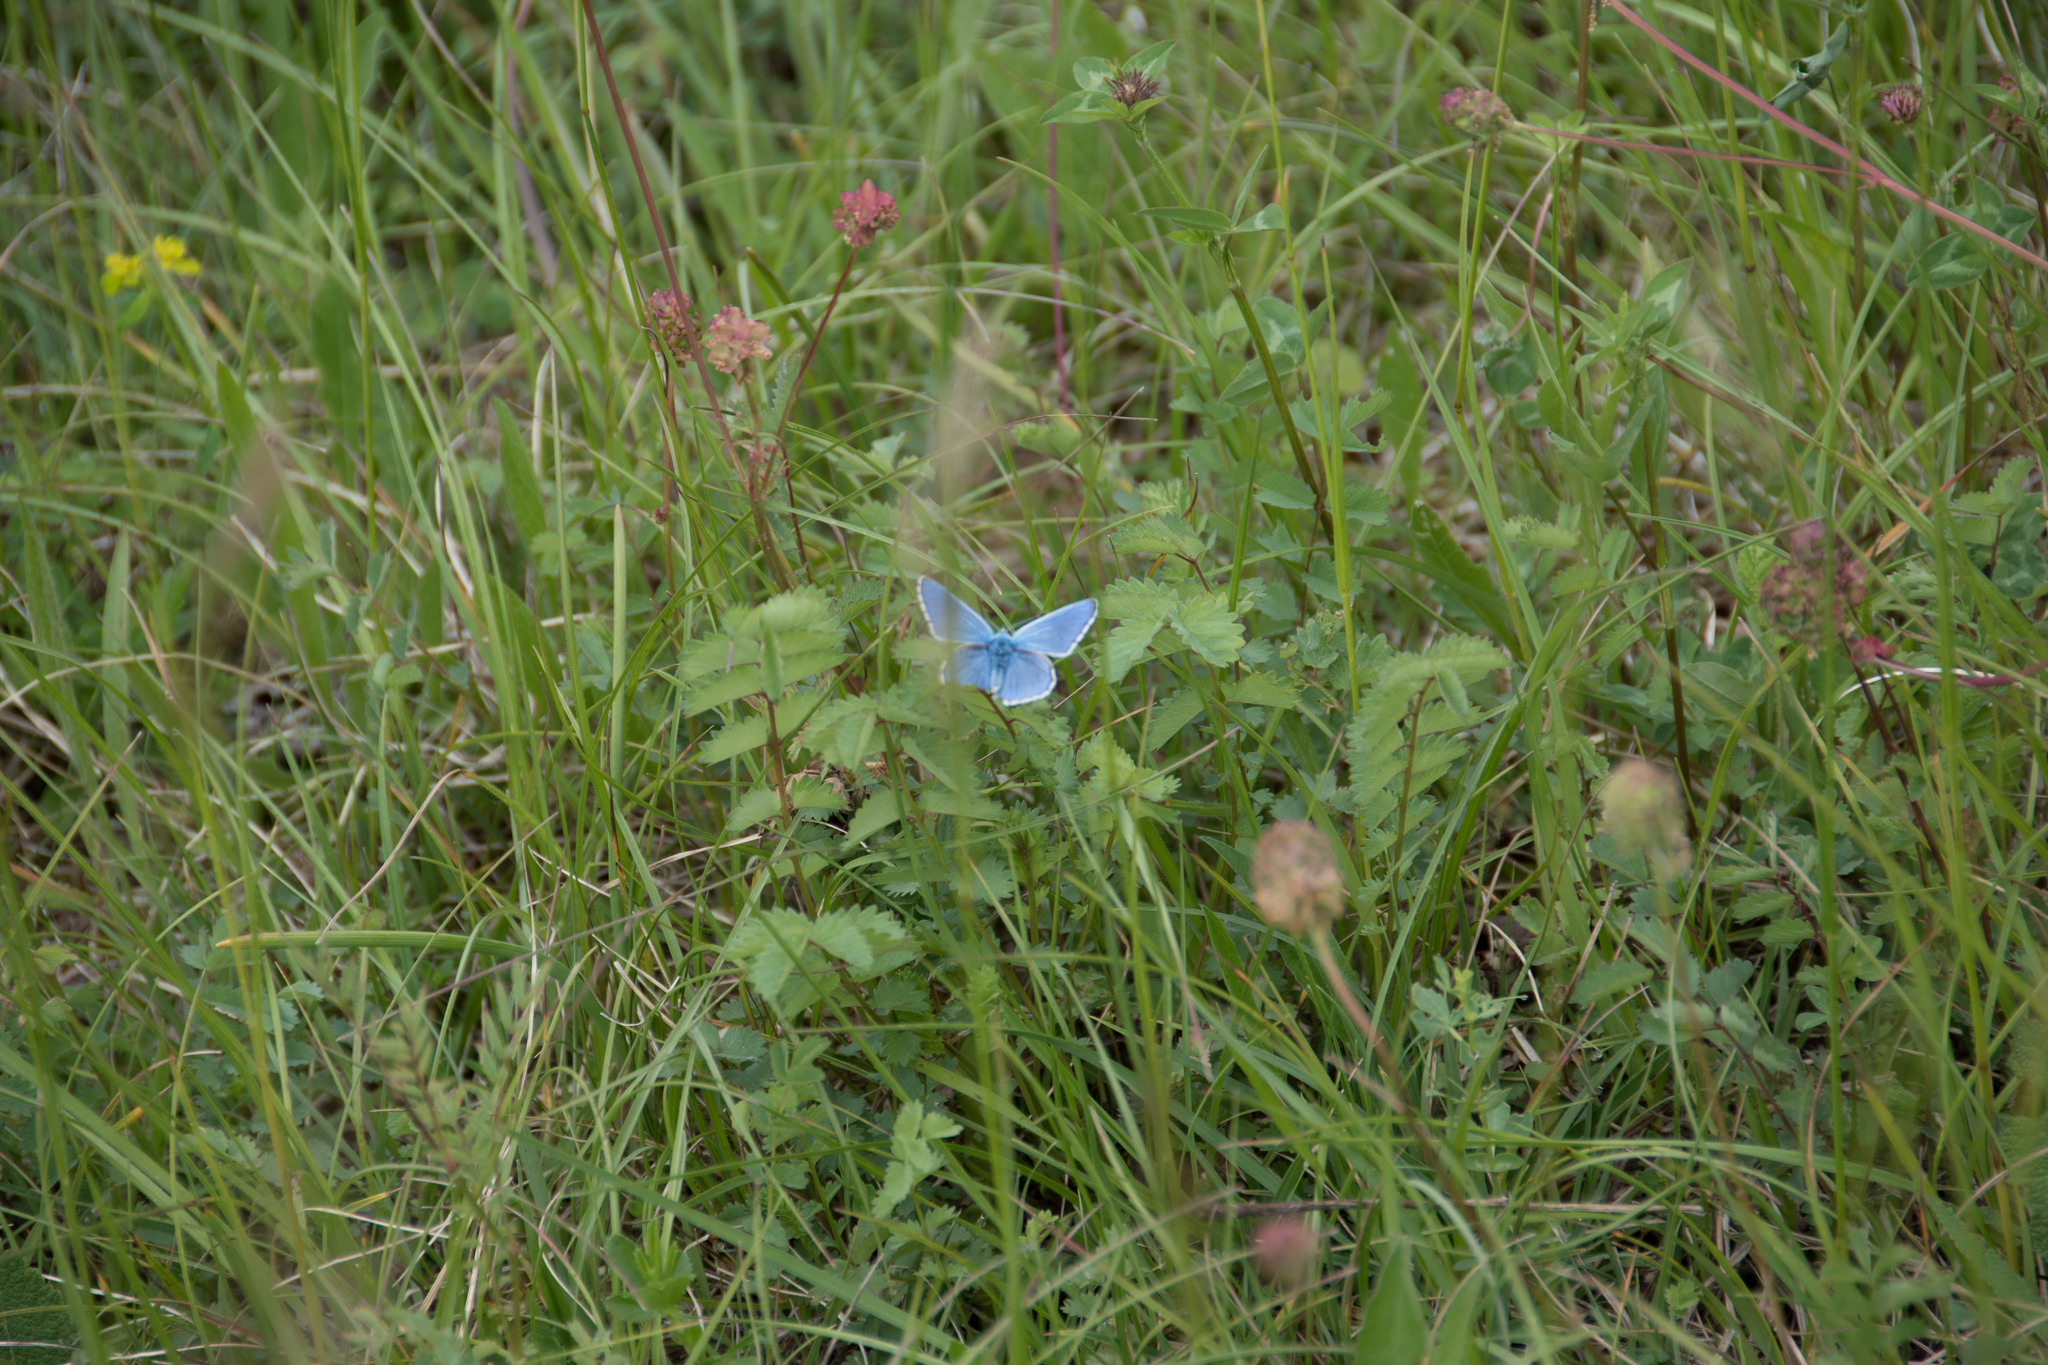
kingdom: Animalia
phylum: Arthropoda
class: Insecta
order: Lepidoptera
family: Lycaenidae
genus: Lysandra
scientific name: Lysandra bellargus
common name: Adonis blue
